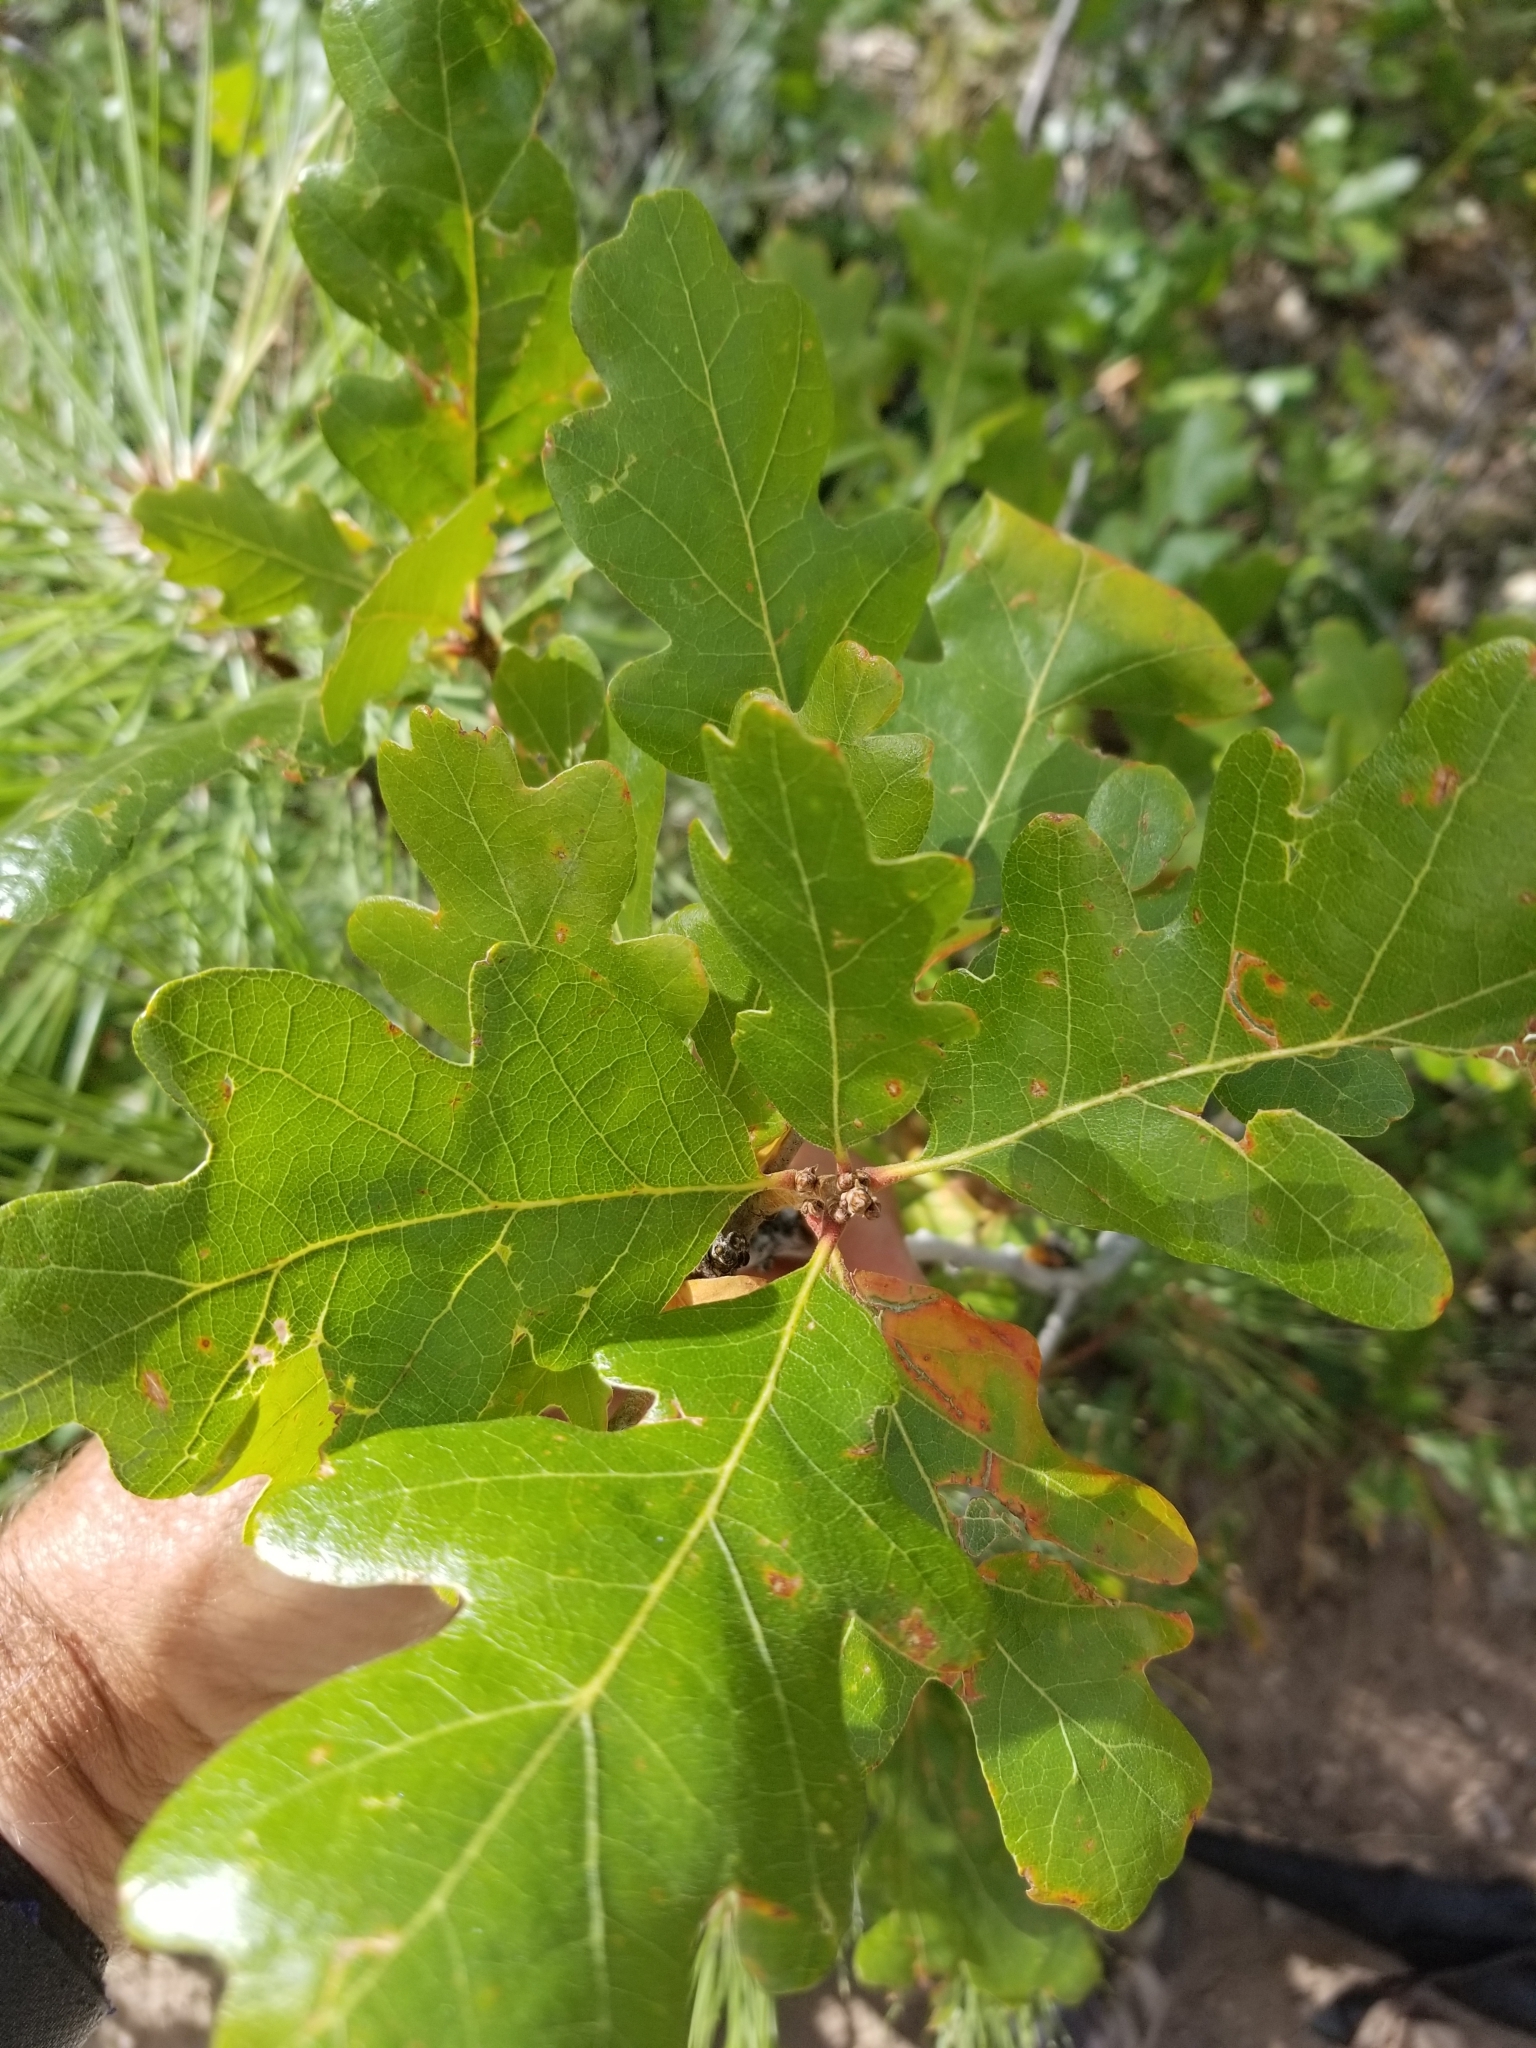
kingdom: Plantae
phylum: Tracheophyta
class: Magnoliopsida
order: Fagales
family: Fagaceae
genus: Quercus
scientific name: Quercus gambelii
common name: Gambel oak
